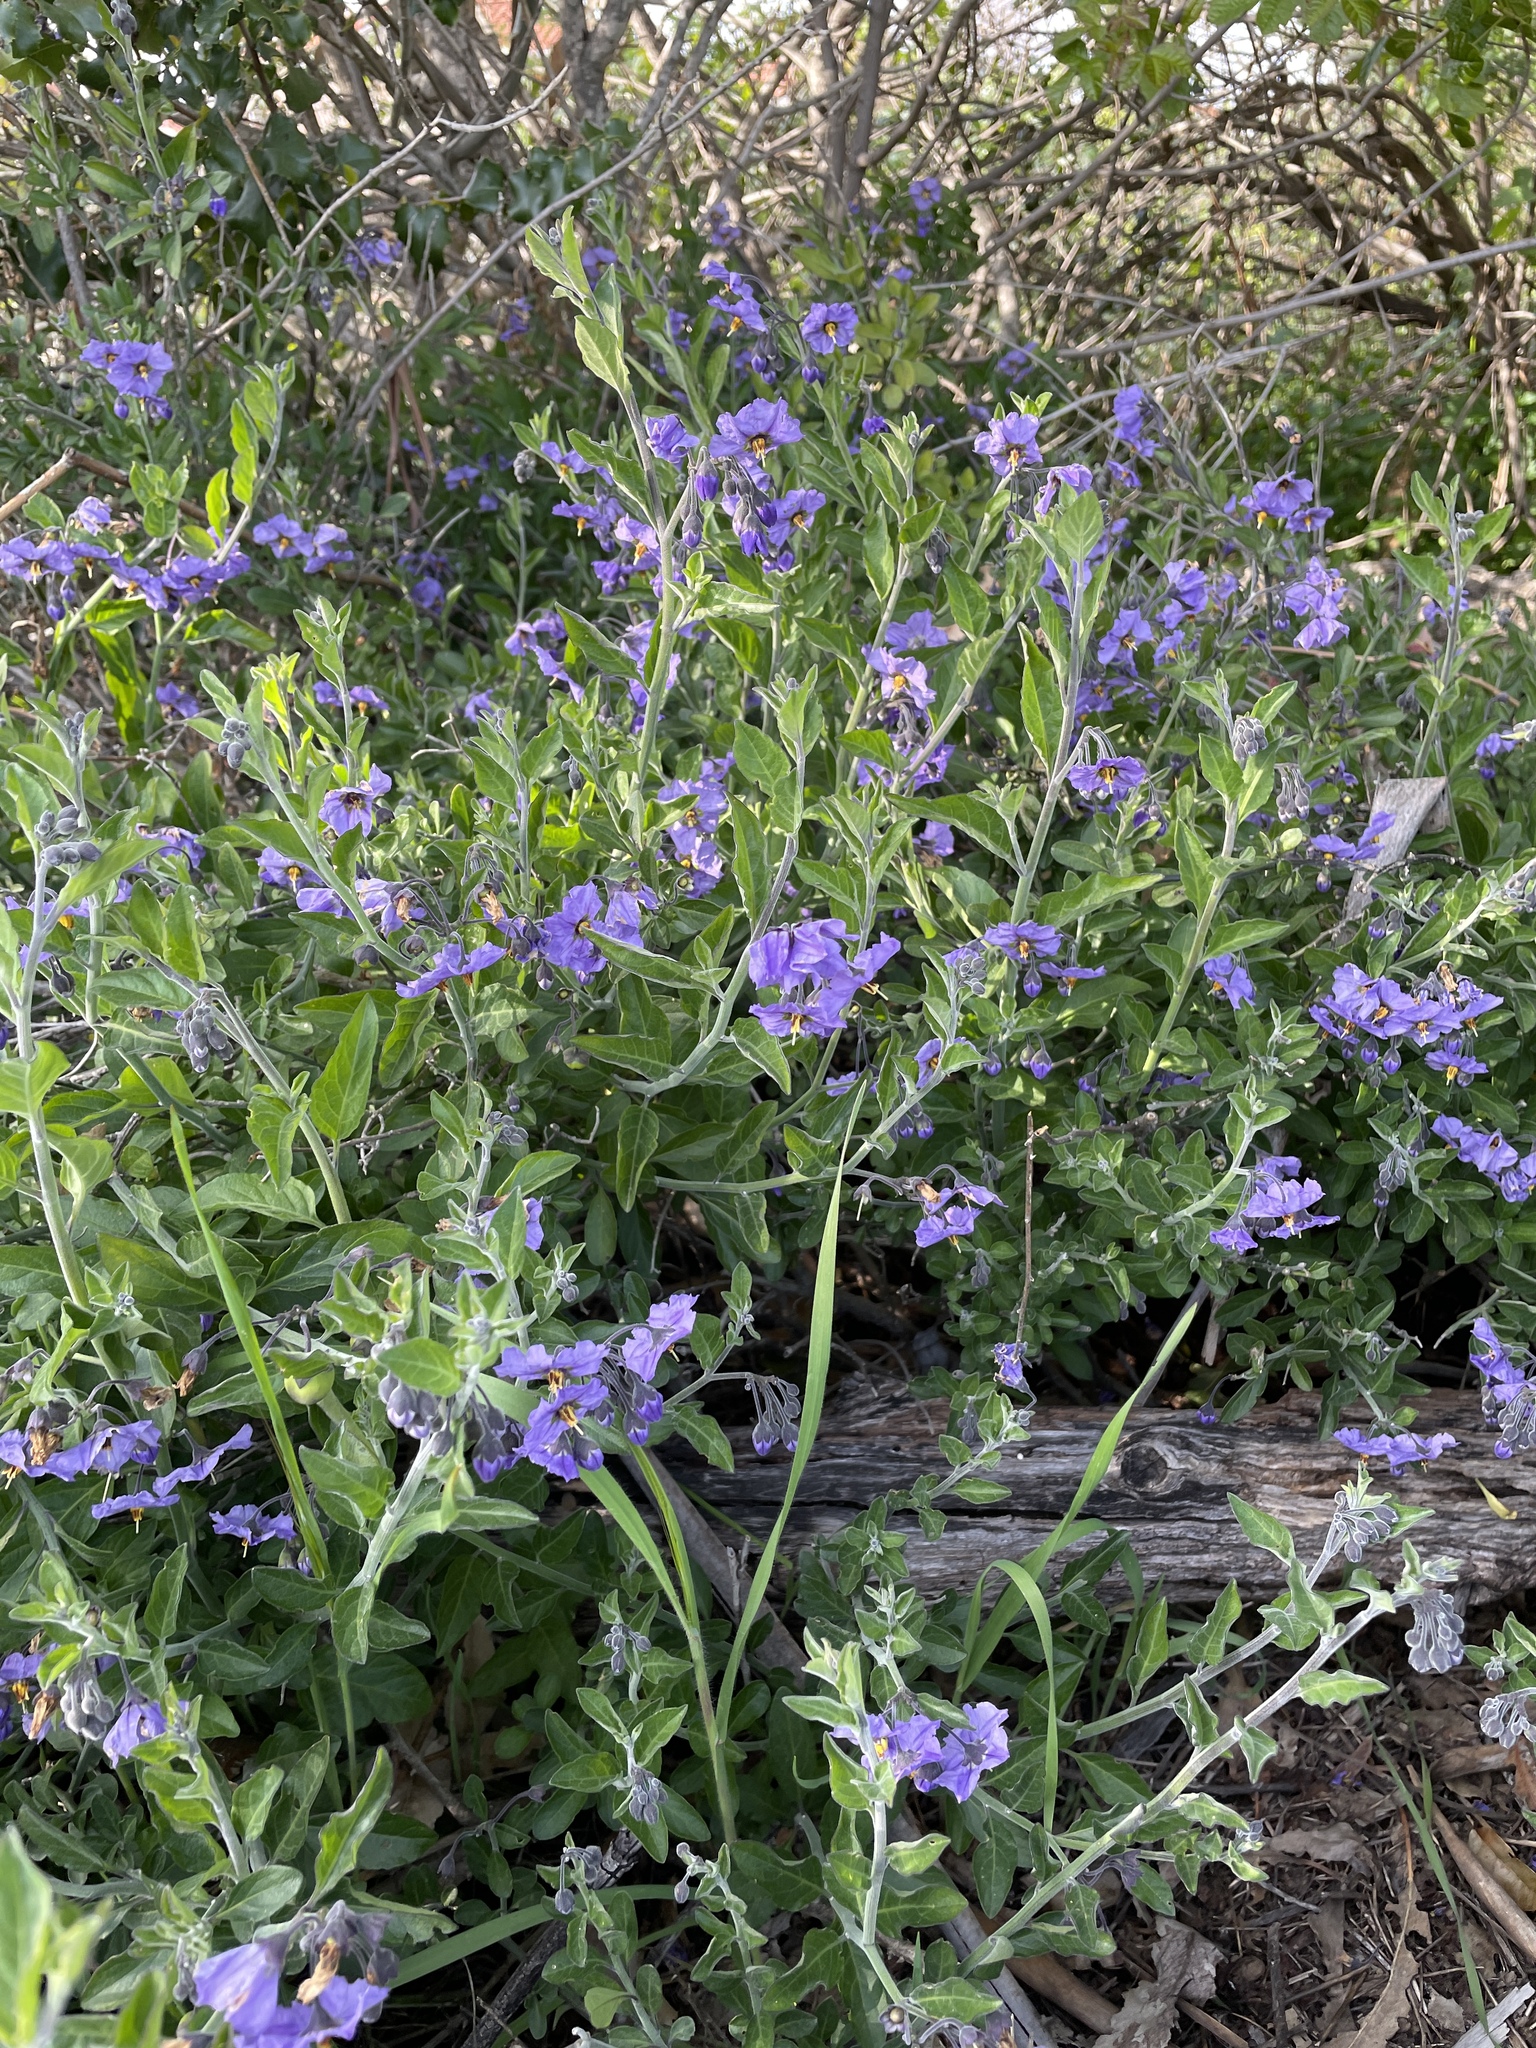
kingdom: Plantae
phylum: Tracheophyta
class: Magnoliopsida
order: Solanales
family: Solanaceae
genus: Solanum
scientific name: Solanum umbelliferum
